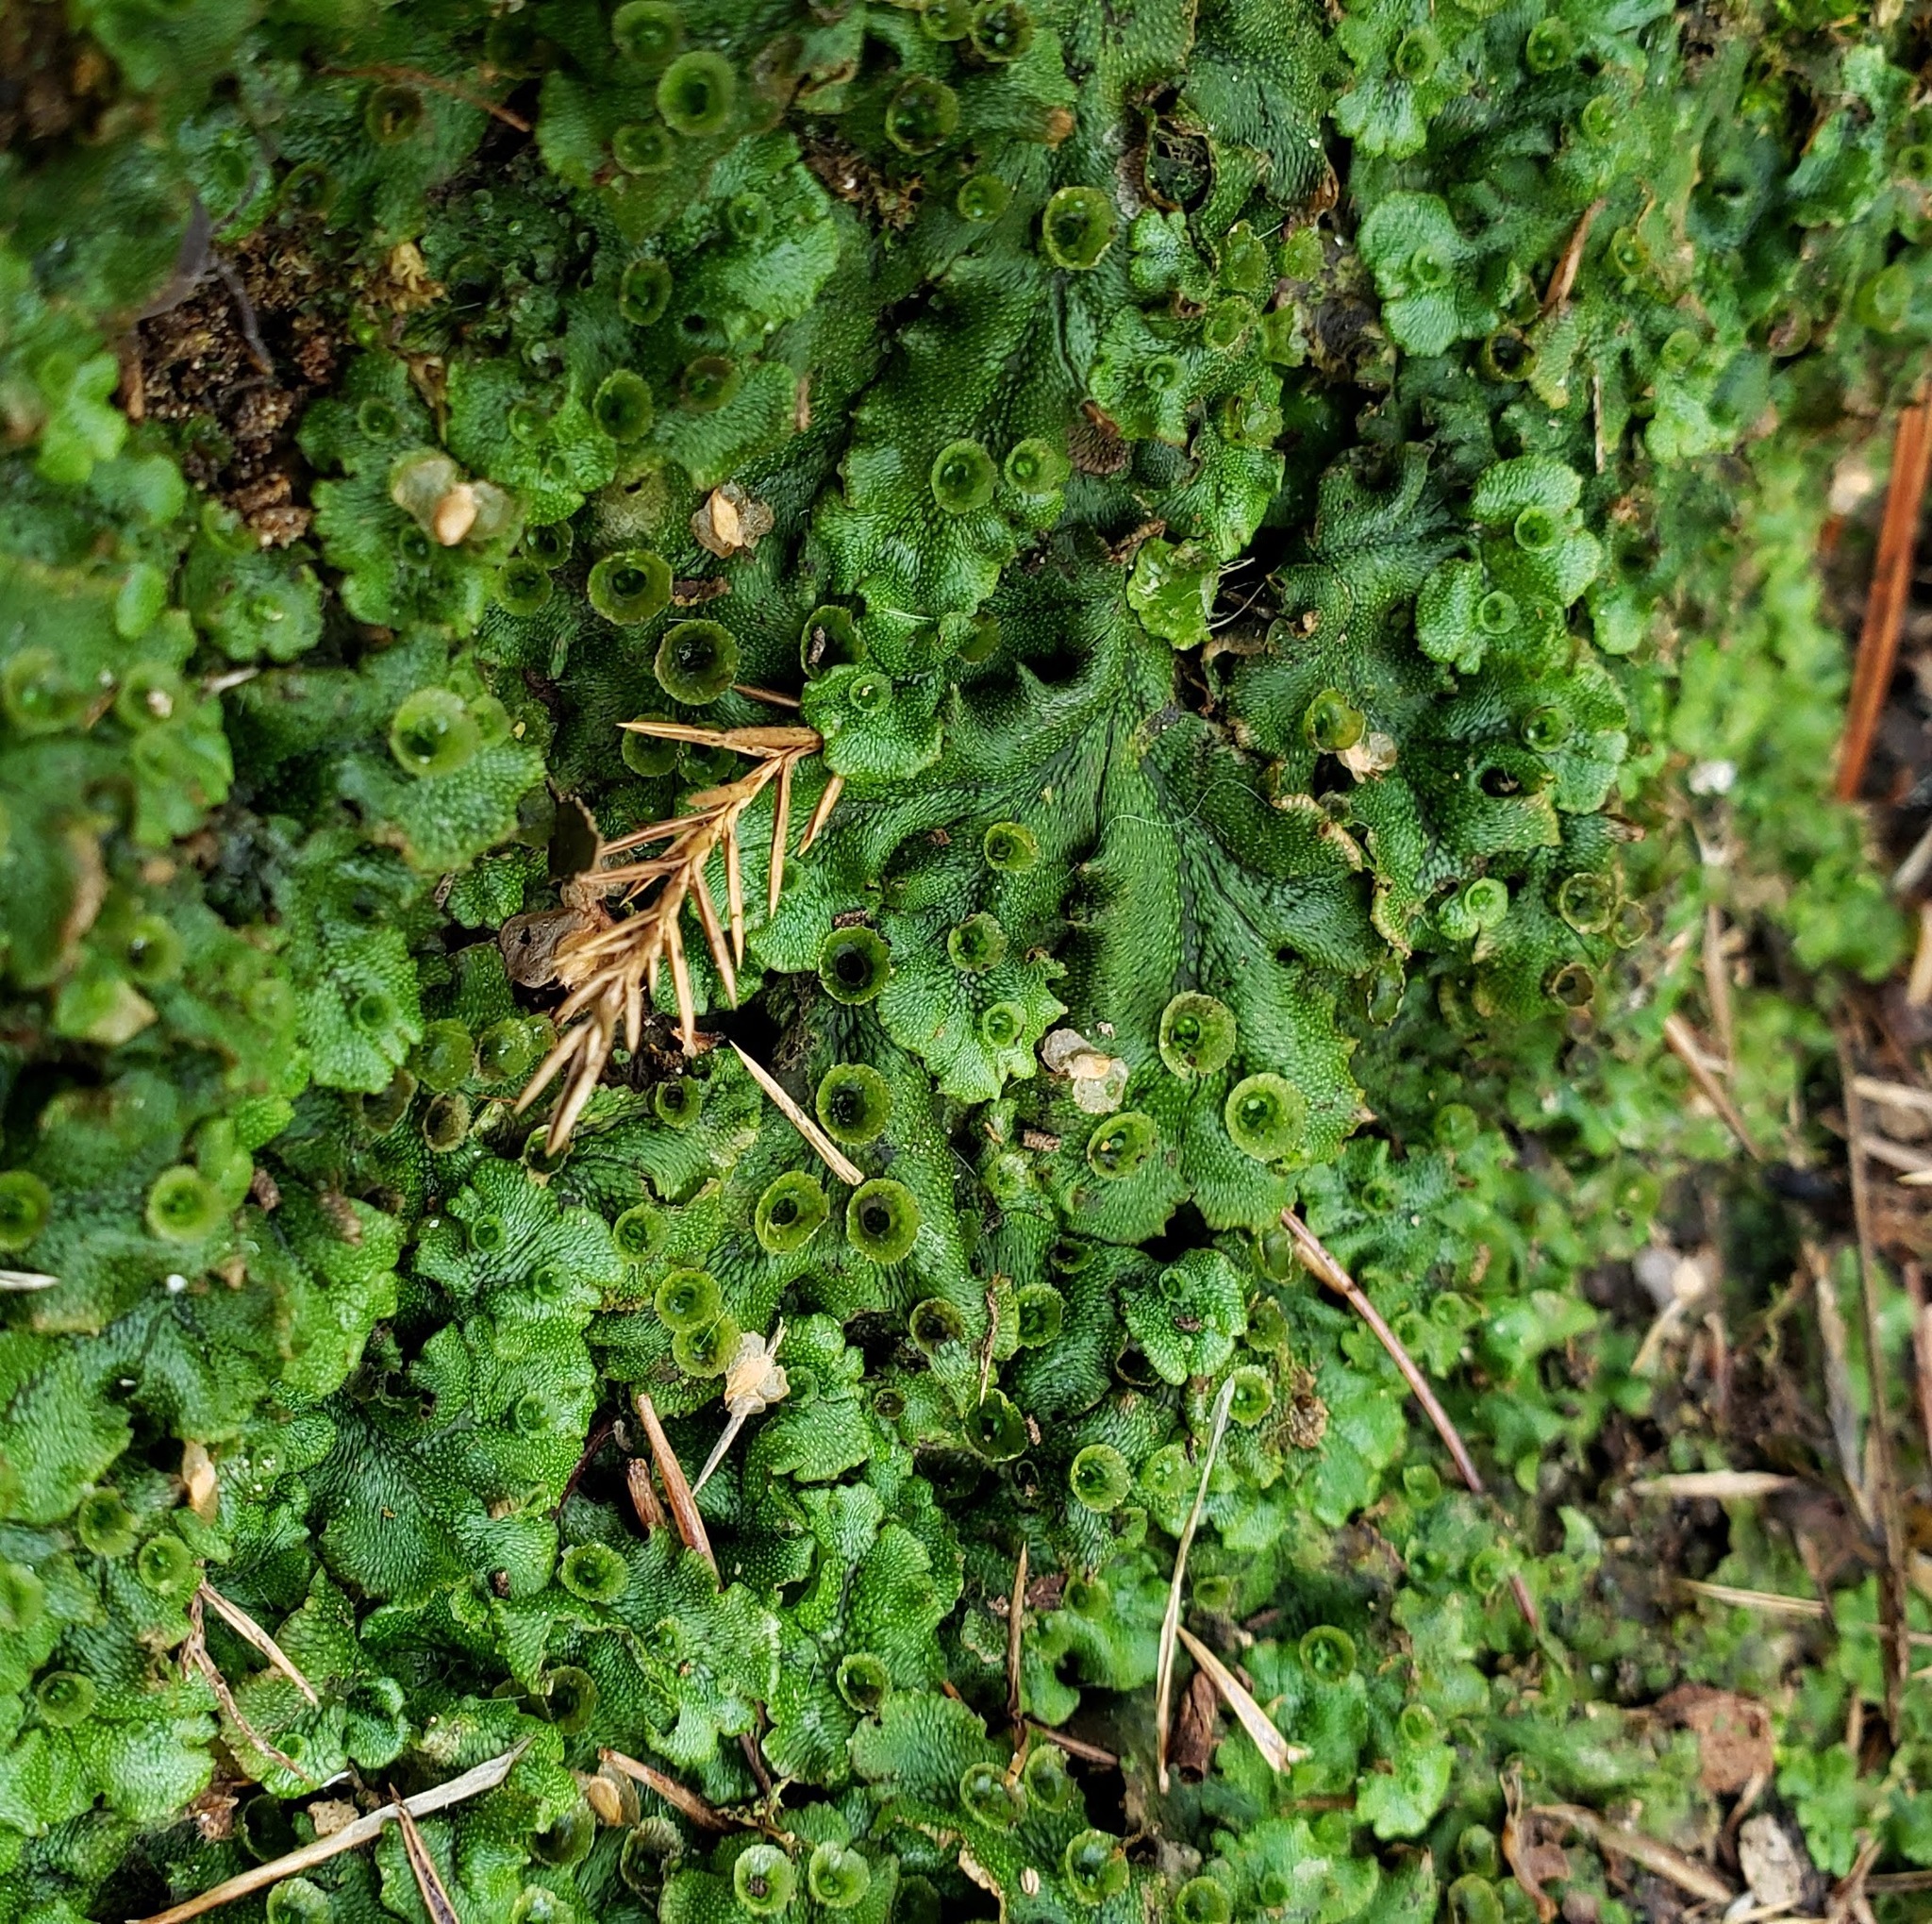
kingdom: Plantae
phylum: Marchantiophyta
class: Marchantiopsida
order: Marchantiales
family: Marchantiaceae
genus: Marchantia
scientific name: Marchantia polymorpha
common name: Common liverwort
